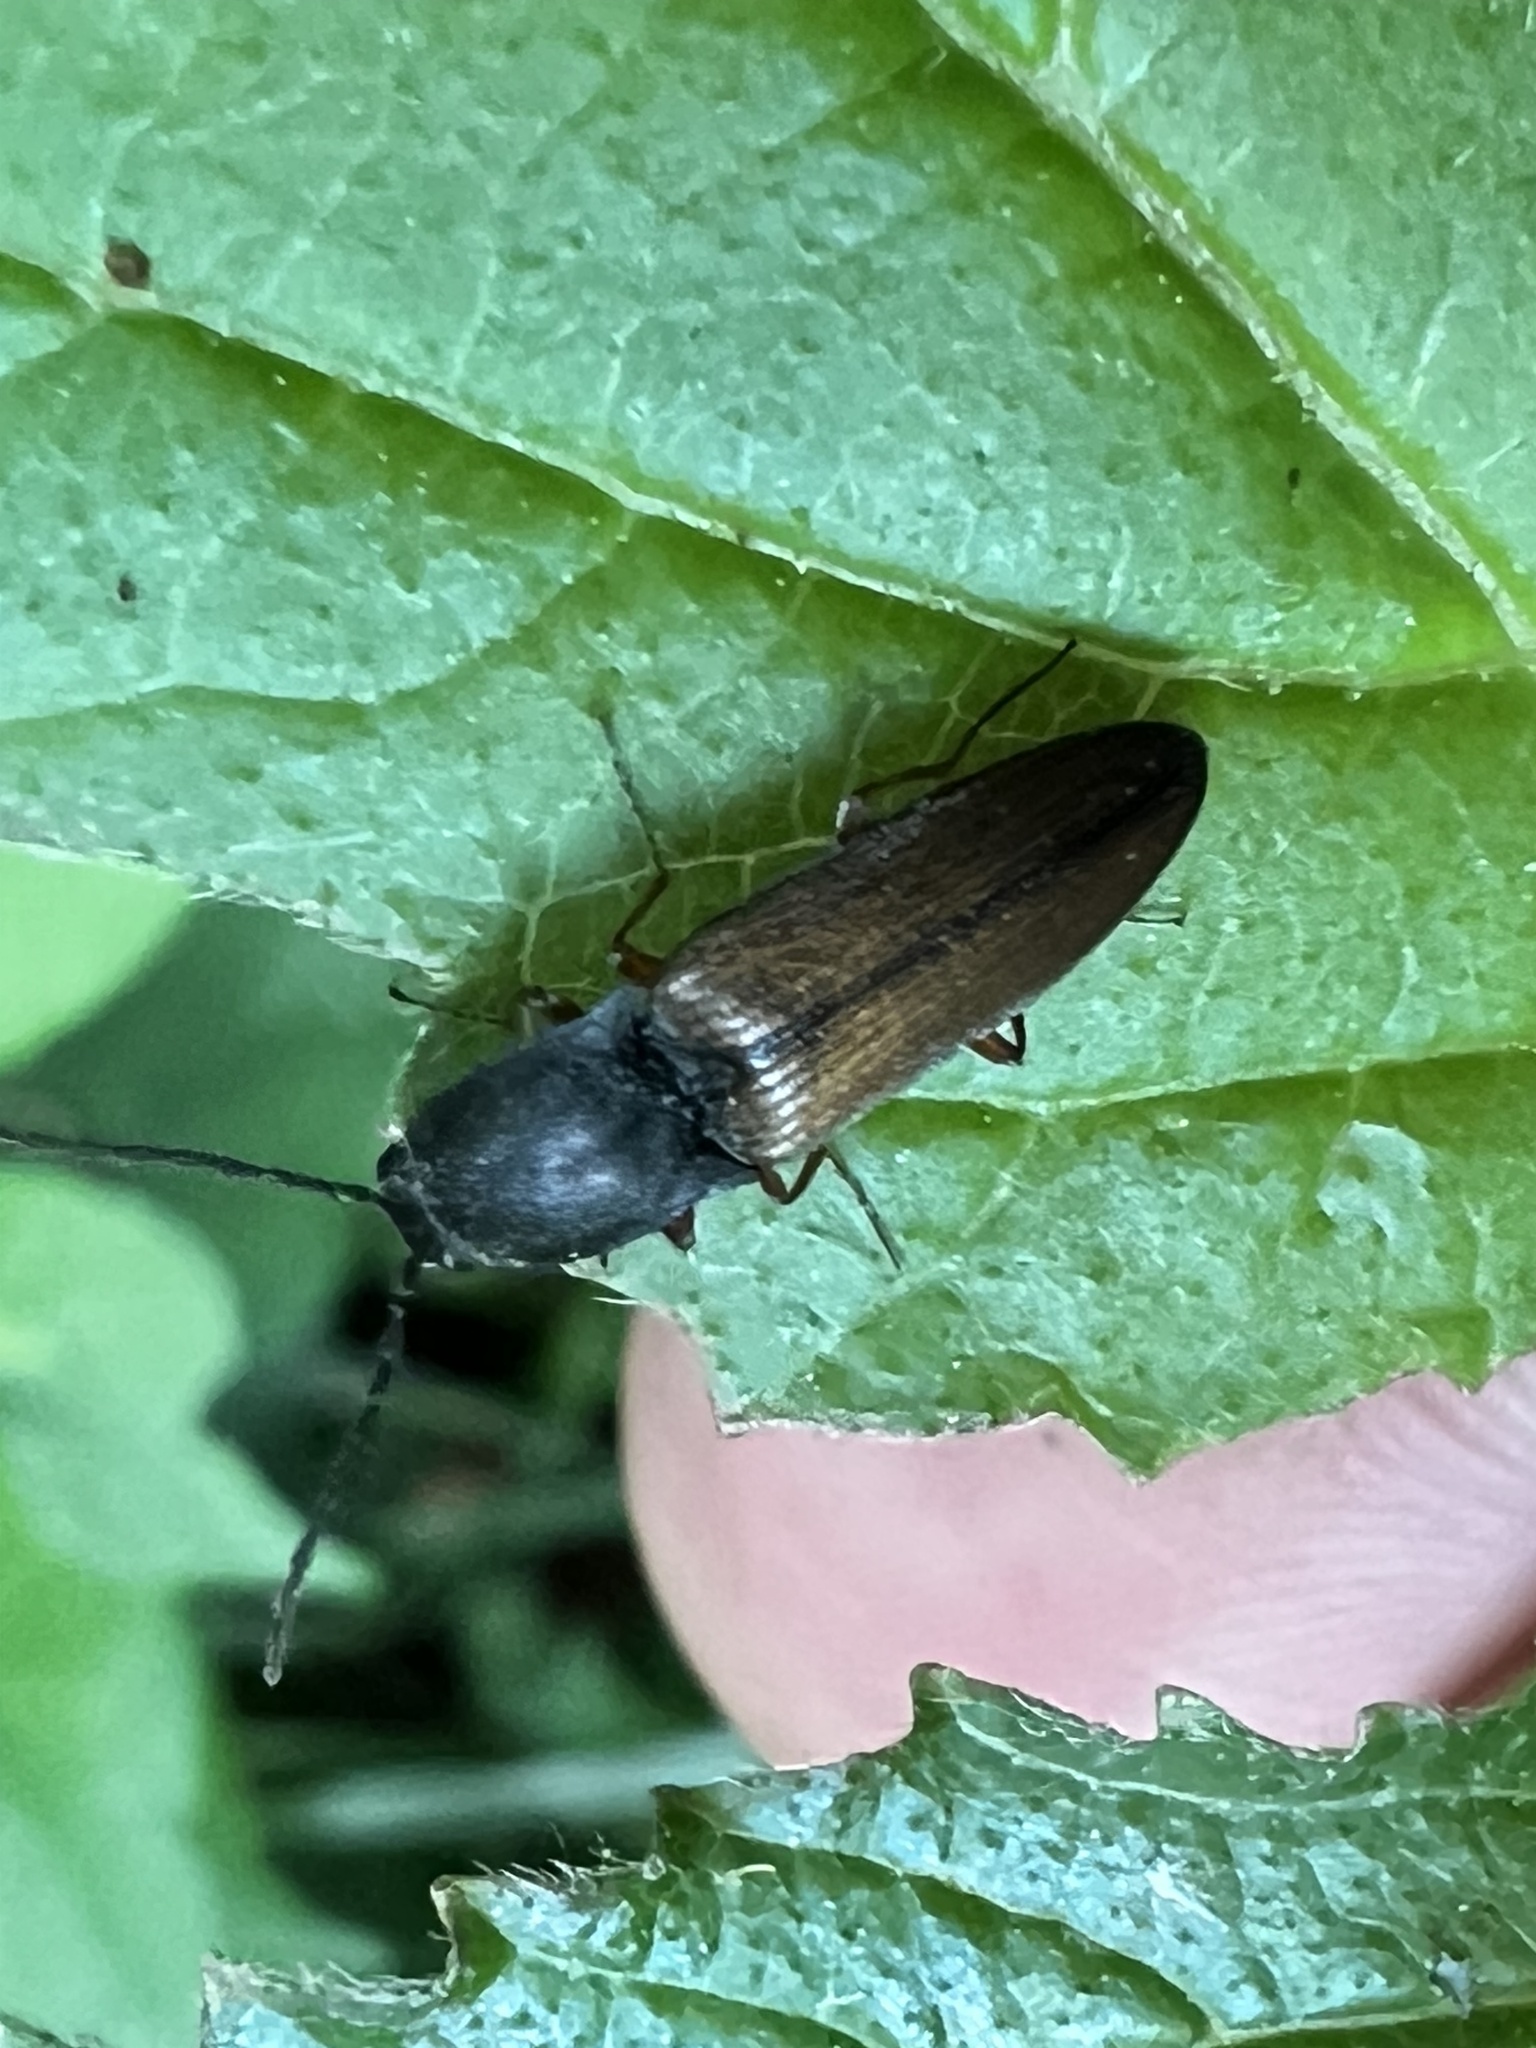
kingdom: Animalia
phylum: Arthropoda
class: Insecta
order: Coleoptera
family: Elateridae
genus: Corymbitodes
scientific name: Corymbitodes tarsalis
